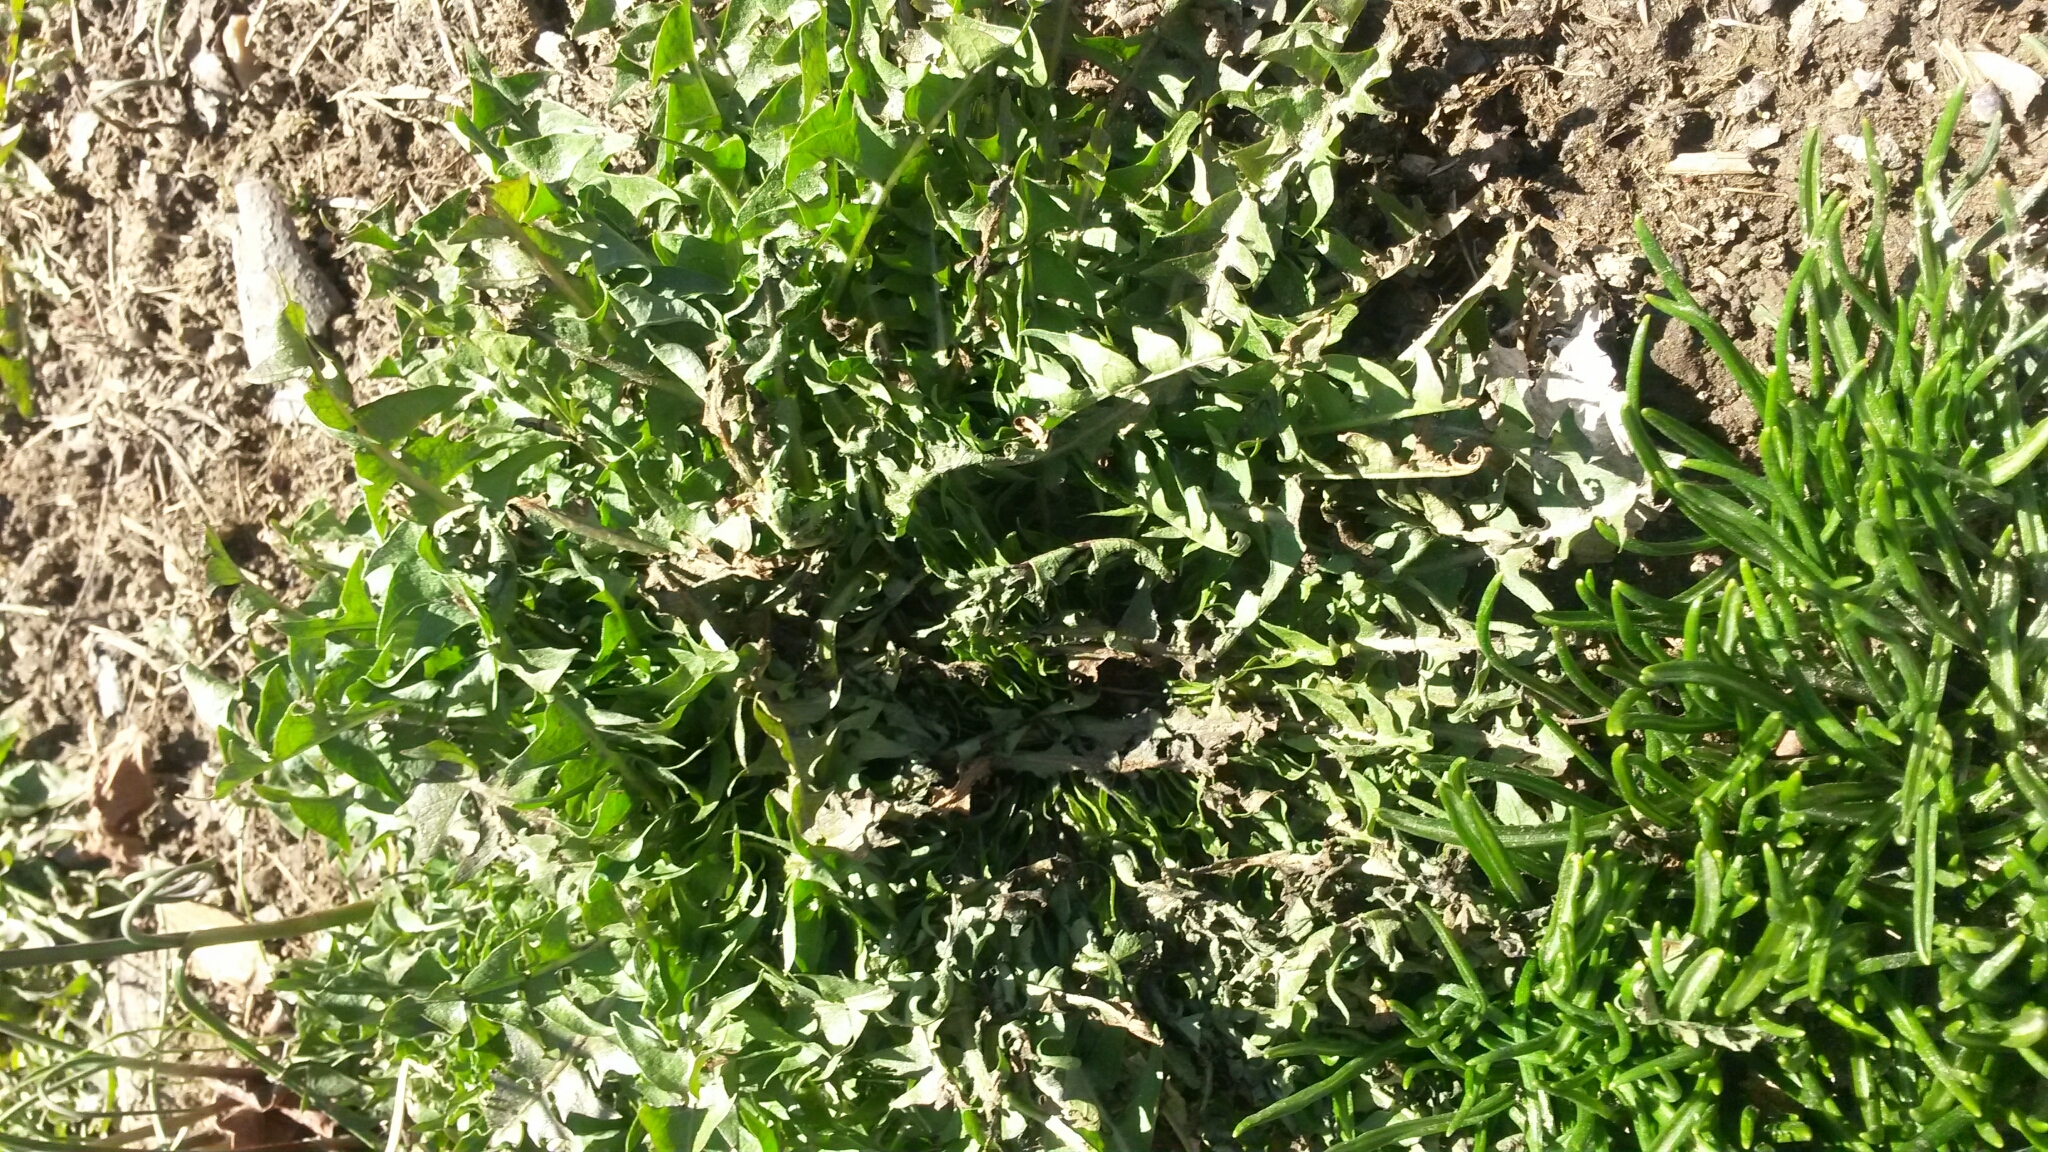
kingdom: Plantae
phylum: Tracheophyta
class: Magnoliopsida
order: Asterales
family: Asteraceae
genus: Taraxacum
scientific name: Taraxacum officinale
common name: Common dandelion
